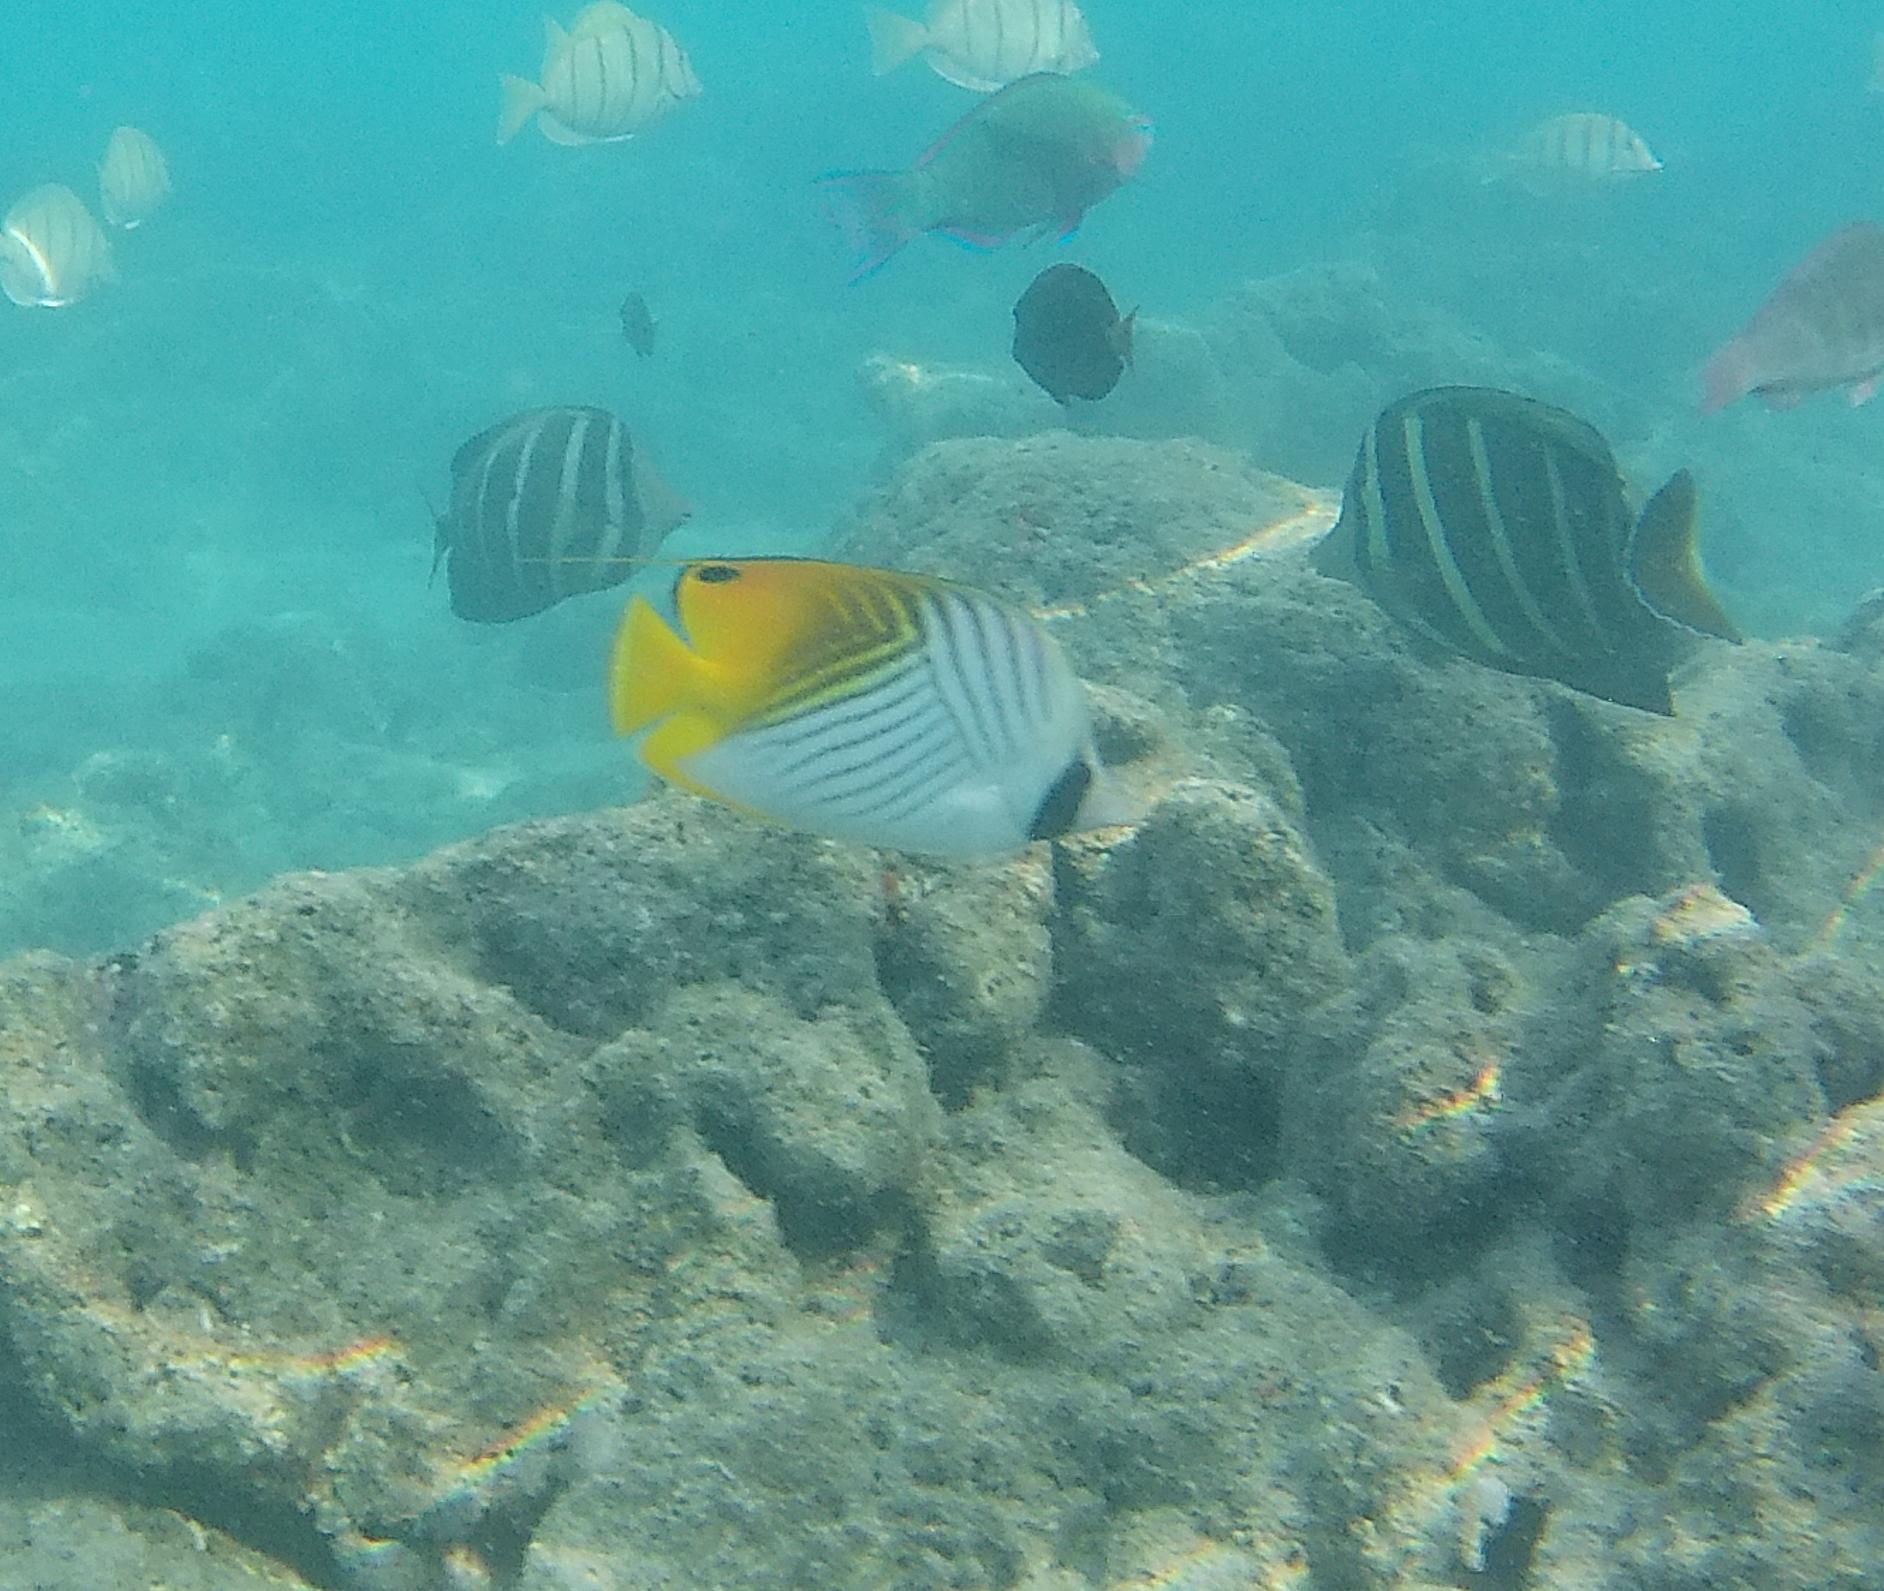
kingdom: Animalia
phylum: Chordata
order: Perciformes
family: Chaetodontidae
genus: Chaetodon
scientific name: Chaetodon auriga
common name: Threadfin butterflyfish
